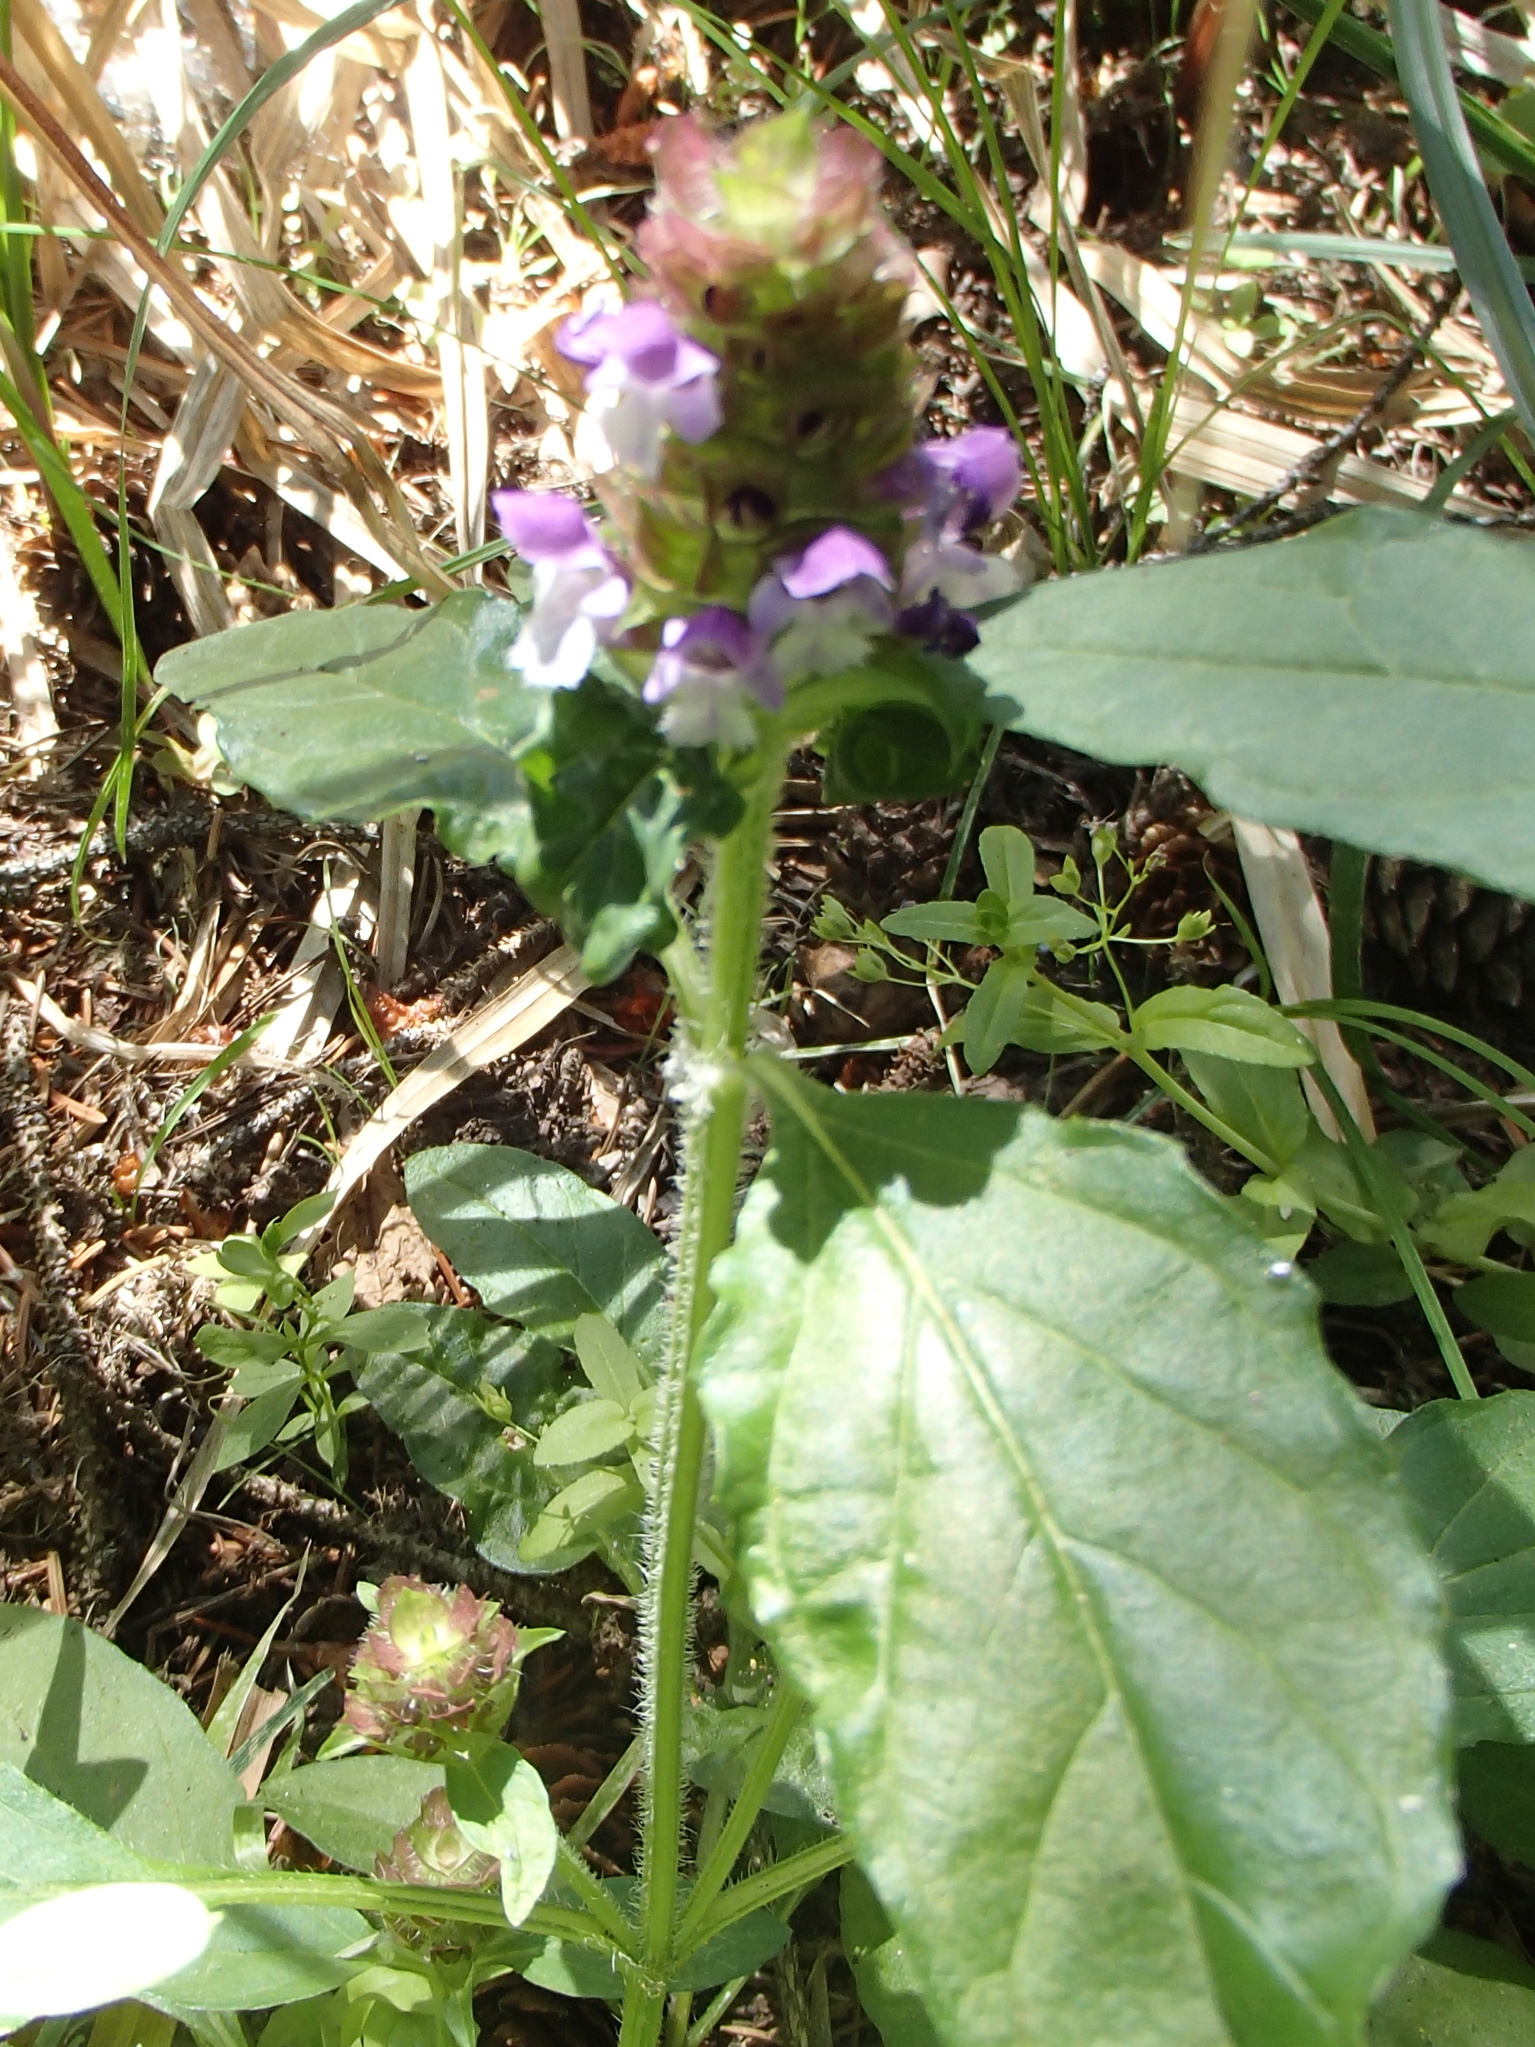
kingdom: Plantae
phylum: Tracheophyta
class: Magnoliopsida
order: Lamiales
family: Lamiaceae
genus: Prunella
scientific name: Prunella vulgaris
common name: Heal-all
